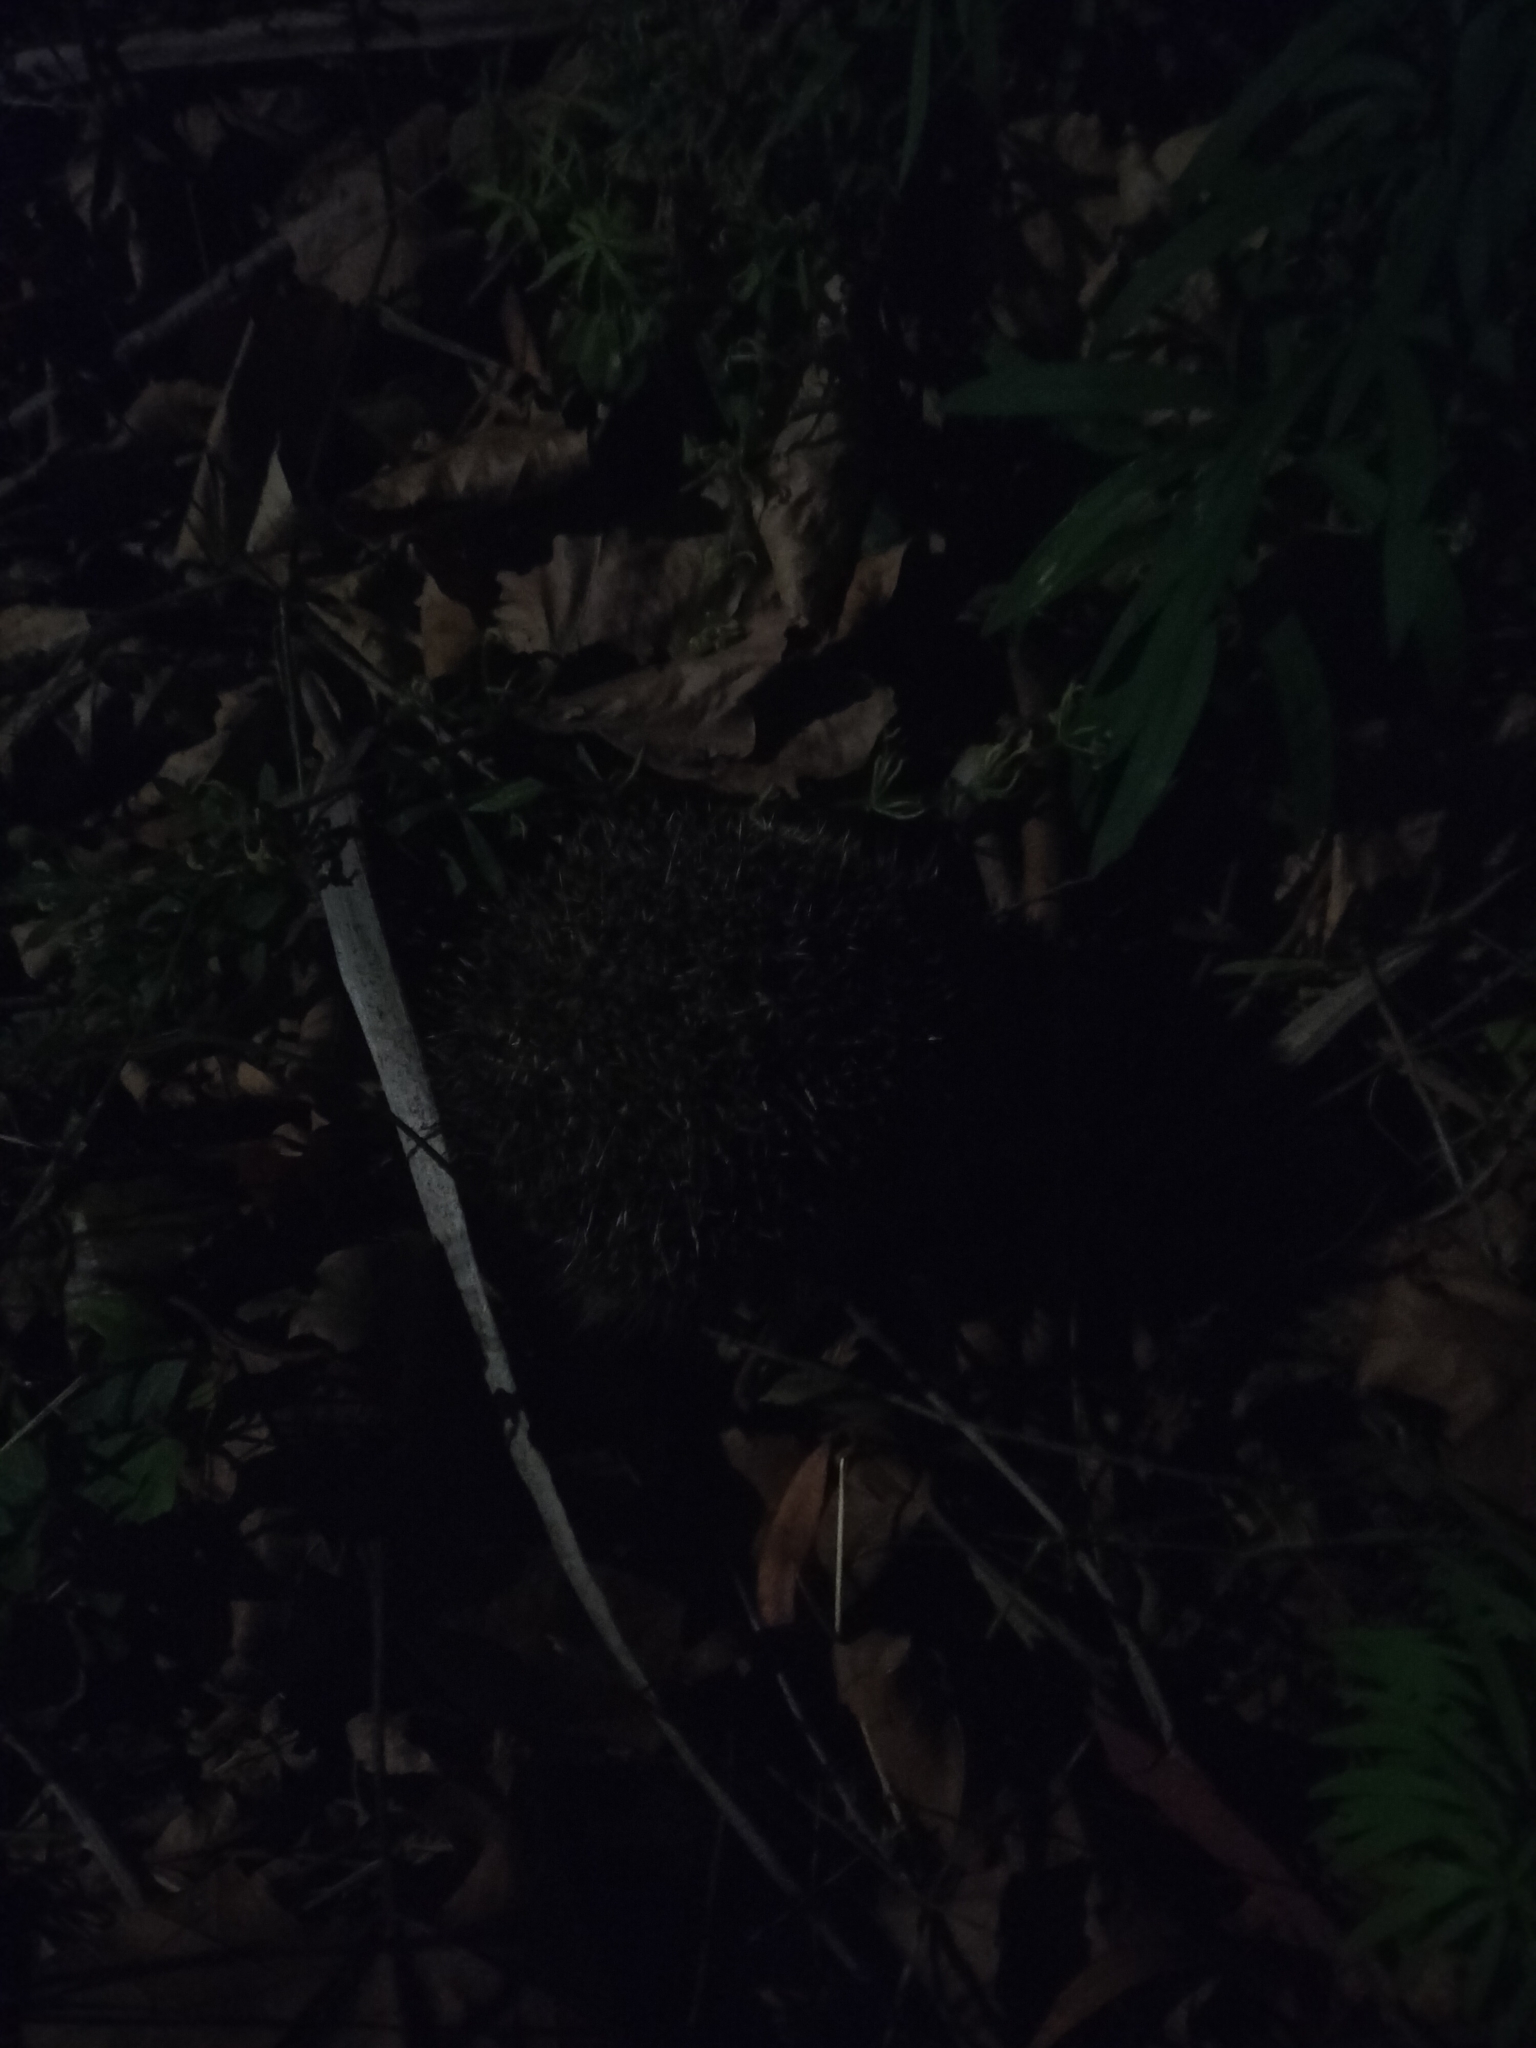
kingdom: Animalia
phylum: Chordata
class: Mammalia
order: Erinaceomorpha
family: Erinaceidae
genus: Erinaceus
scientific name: Erinaceus europaeus
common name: West european hedgehog
